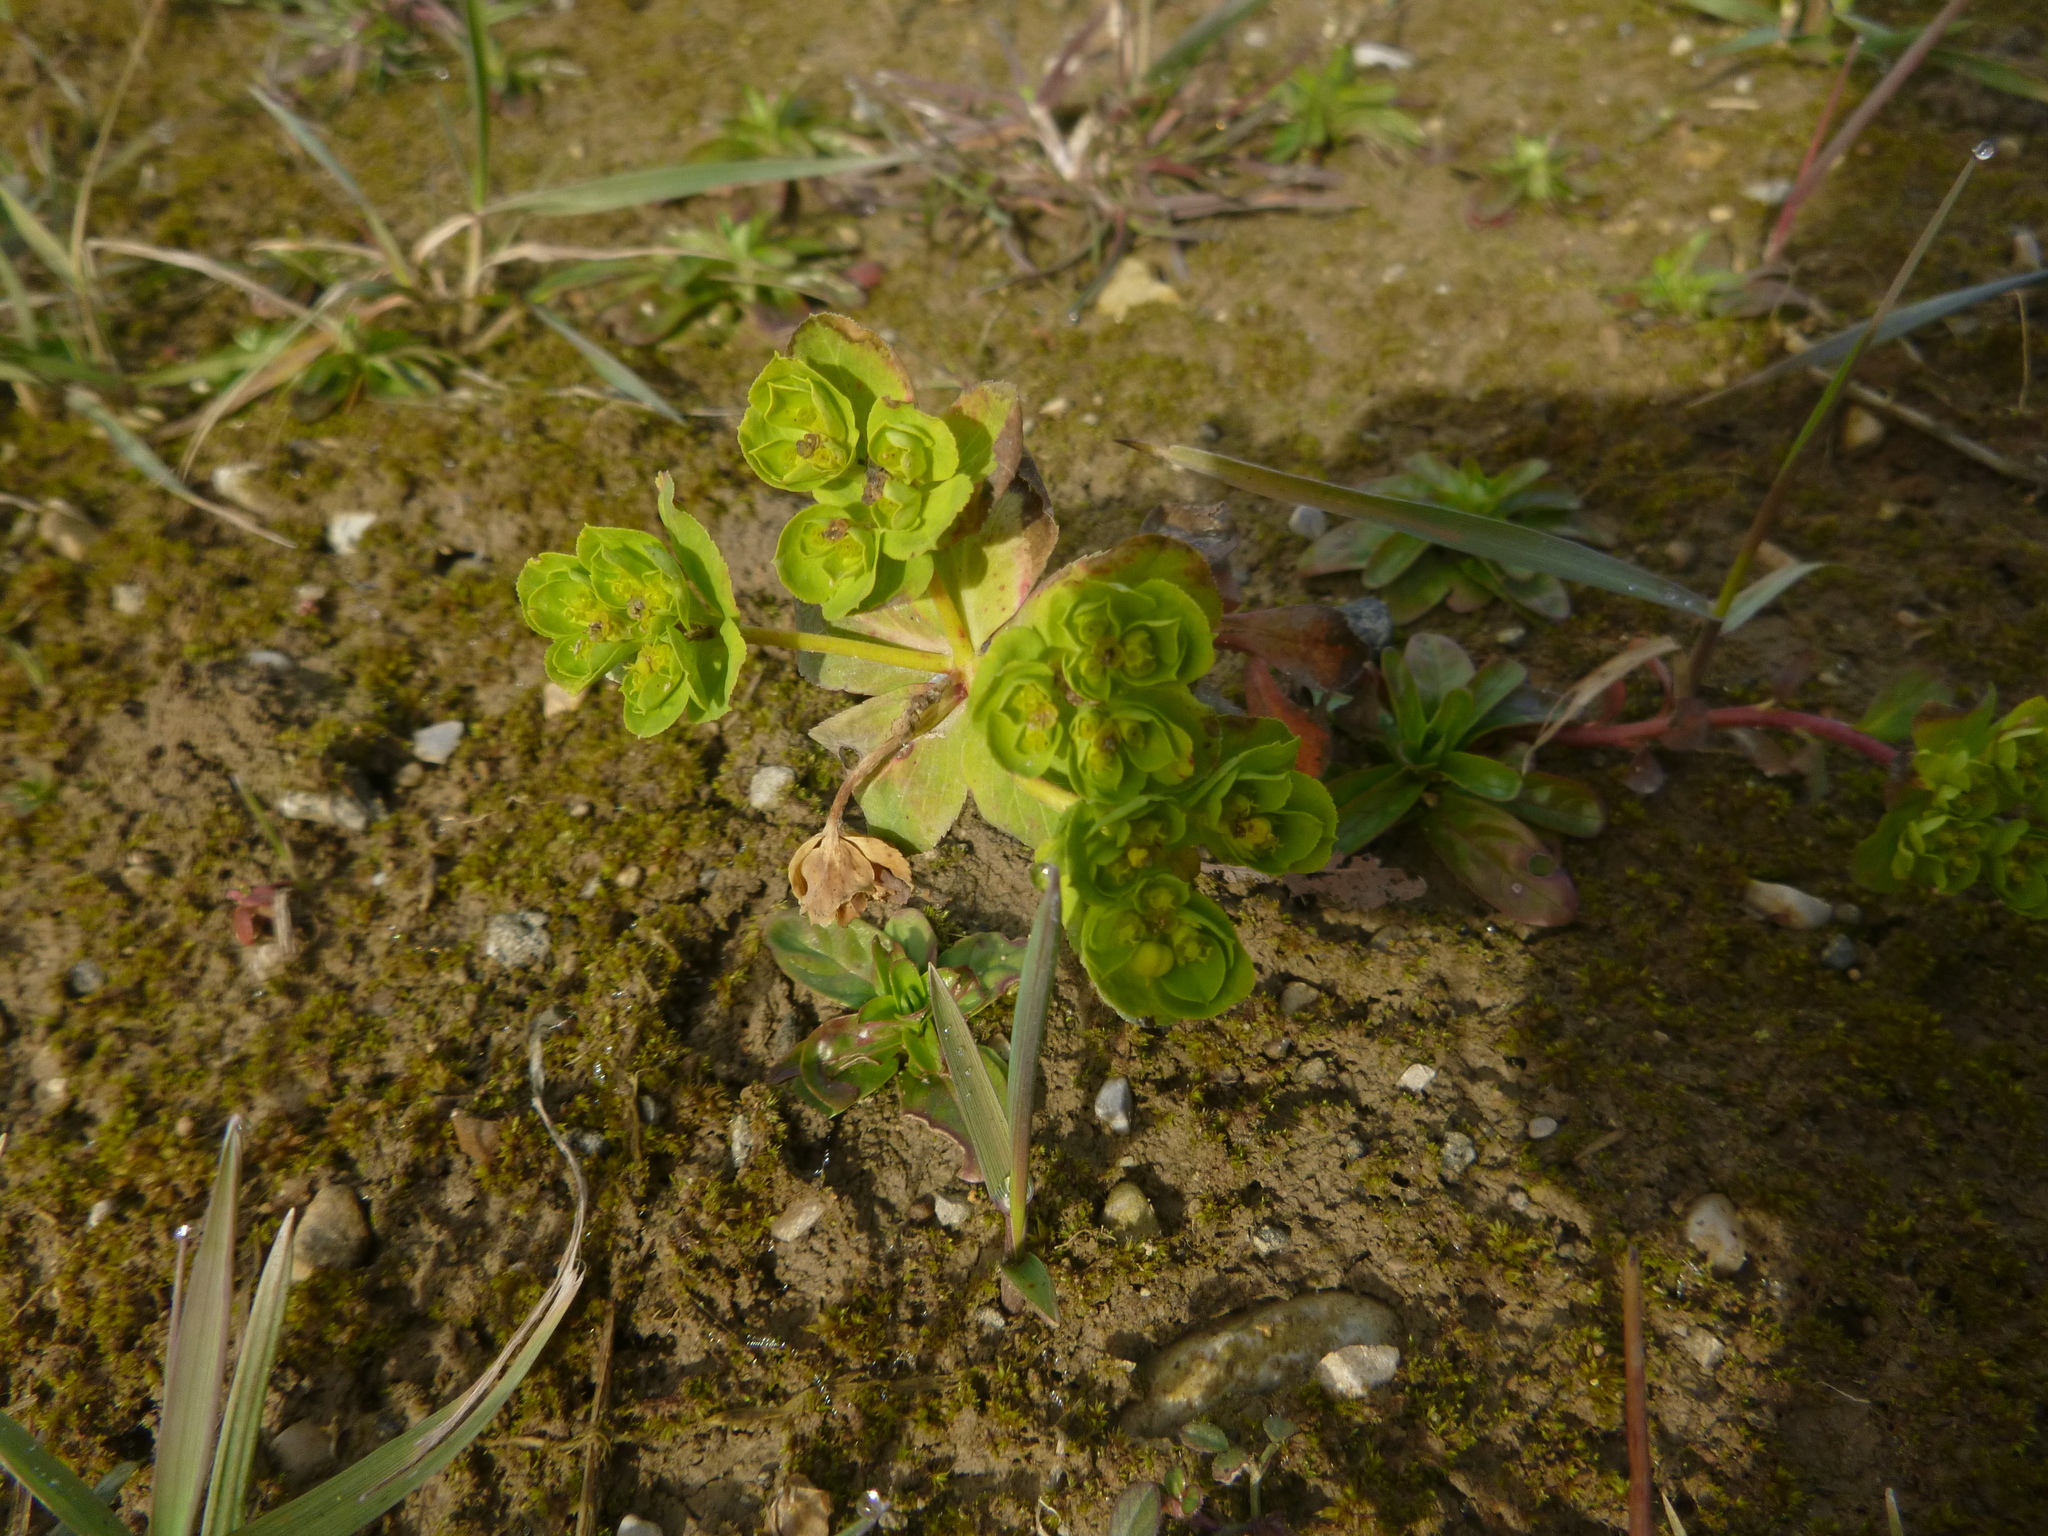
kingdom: Plantae
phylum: Tracheophyta
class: Magnoliopsida
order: Malpighiales
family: Euphorbiaceae
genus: Euphorbia
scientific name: Euphorbia helioscopia
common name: Sun spurge
